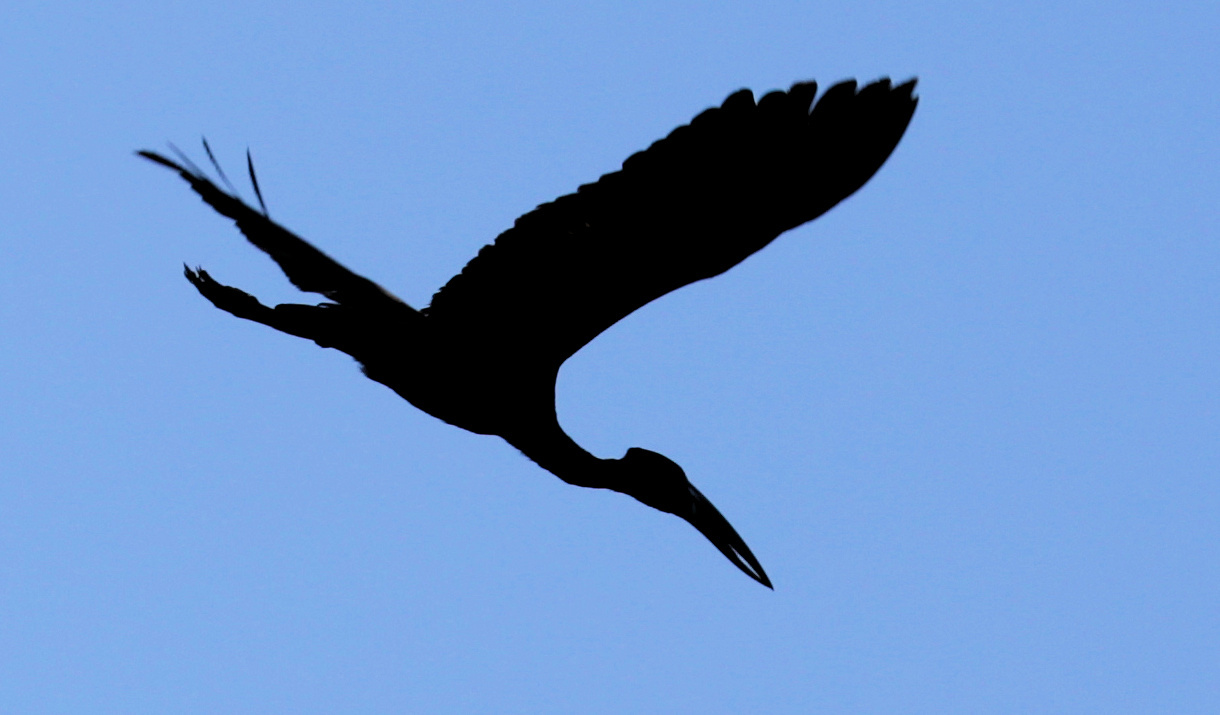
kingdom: Animalia
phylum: Chordata
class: Aves
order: Ciconiiformes
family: Ciconiidae
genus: Anastomus
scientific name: Anastomus lamelligerus
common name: African openbill
